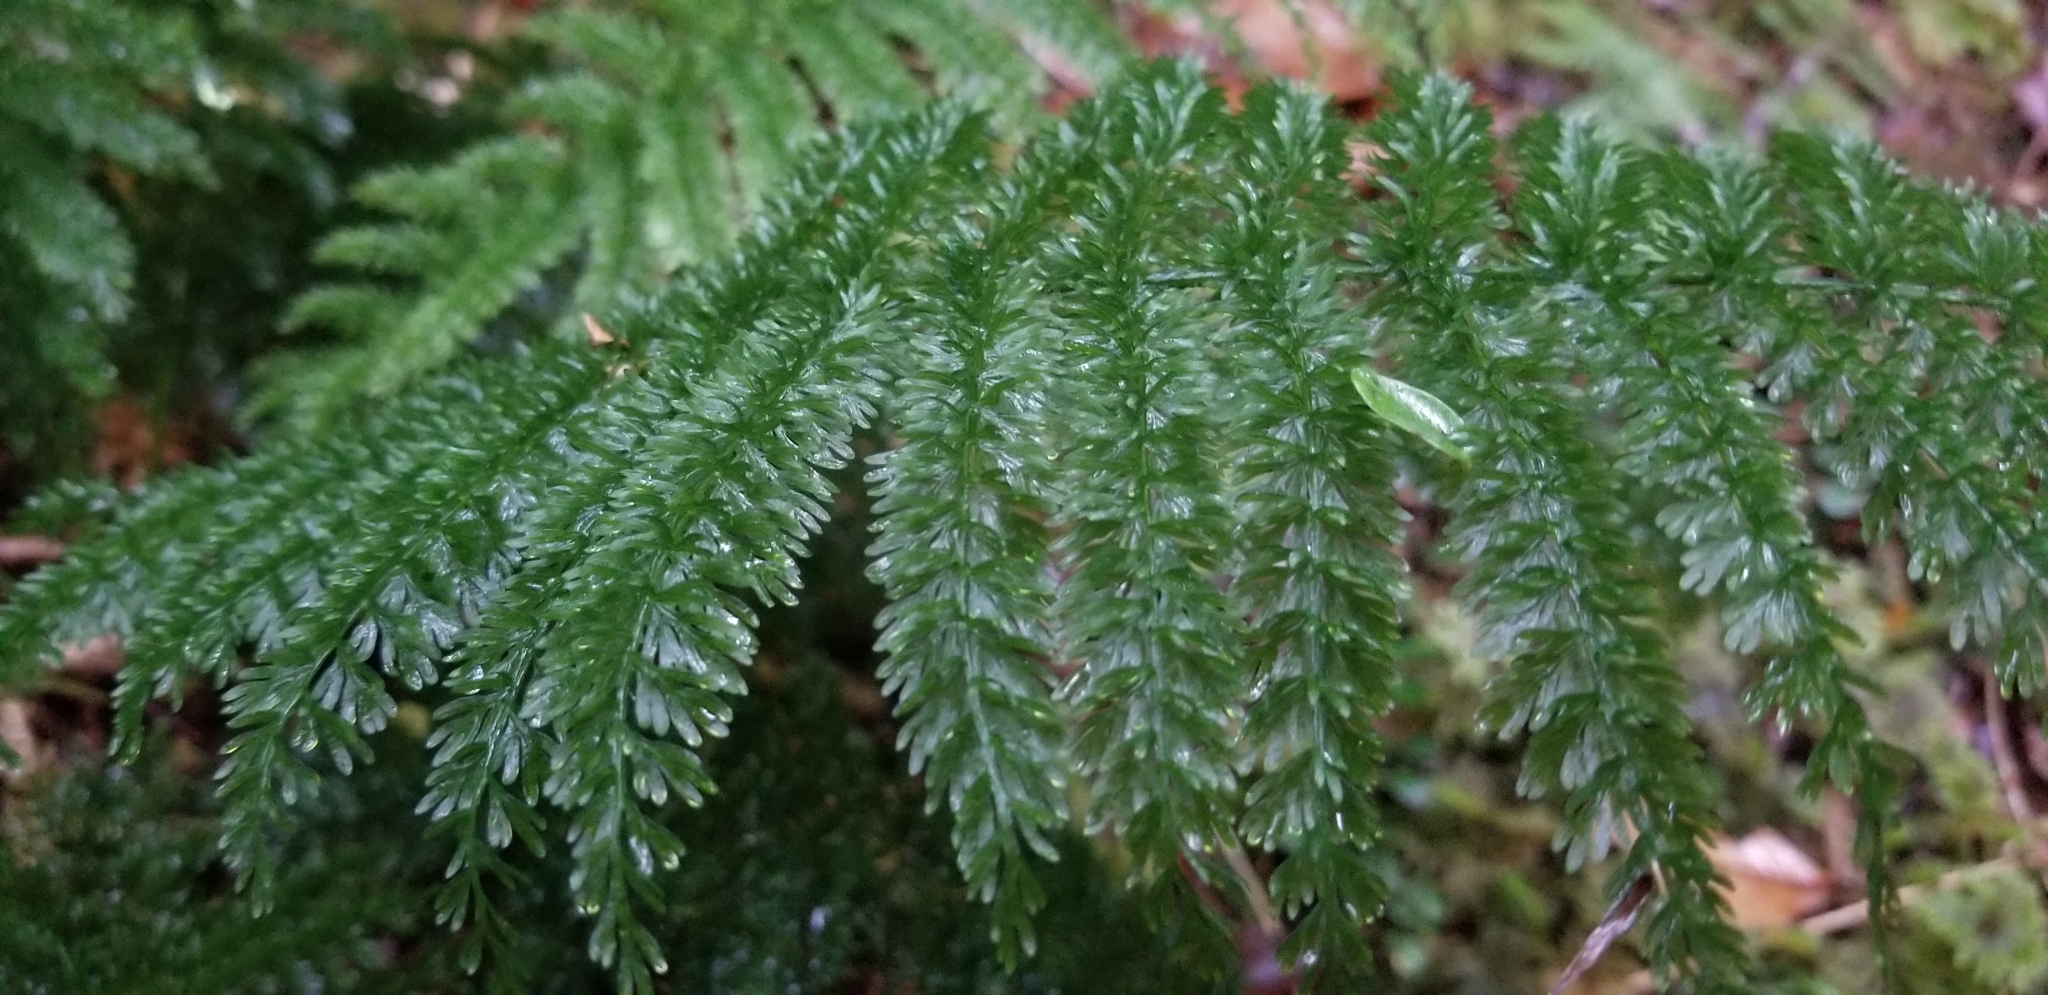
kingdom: Plantae
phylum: Tracheophyta
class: Polypodiopsida
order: Osmundales
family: Osmundaceae
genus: Leptopteris
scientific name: Leptopteris superba
